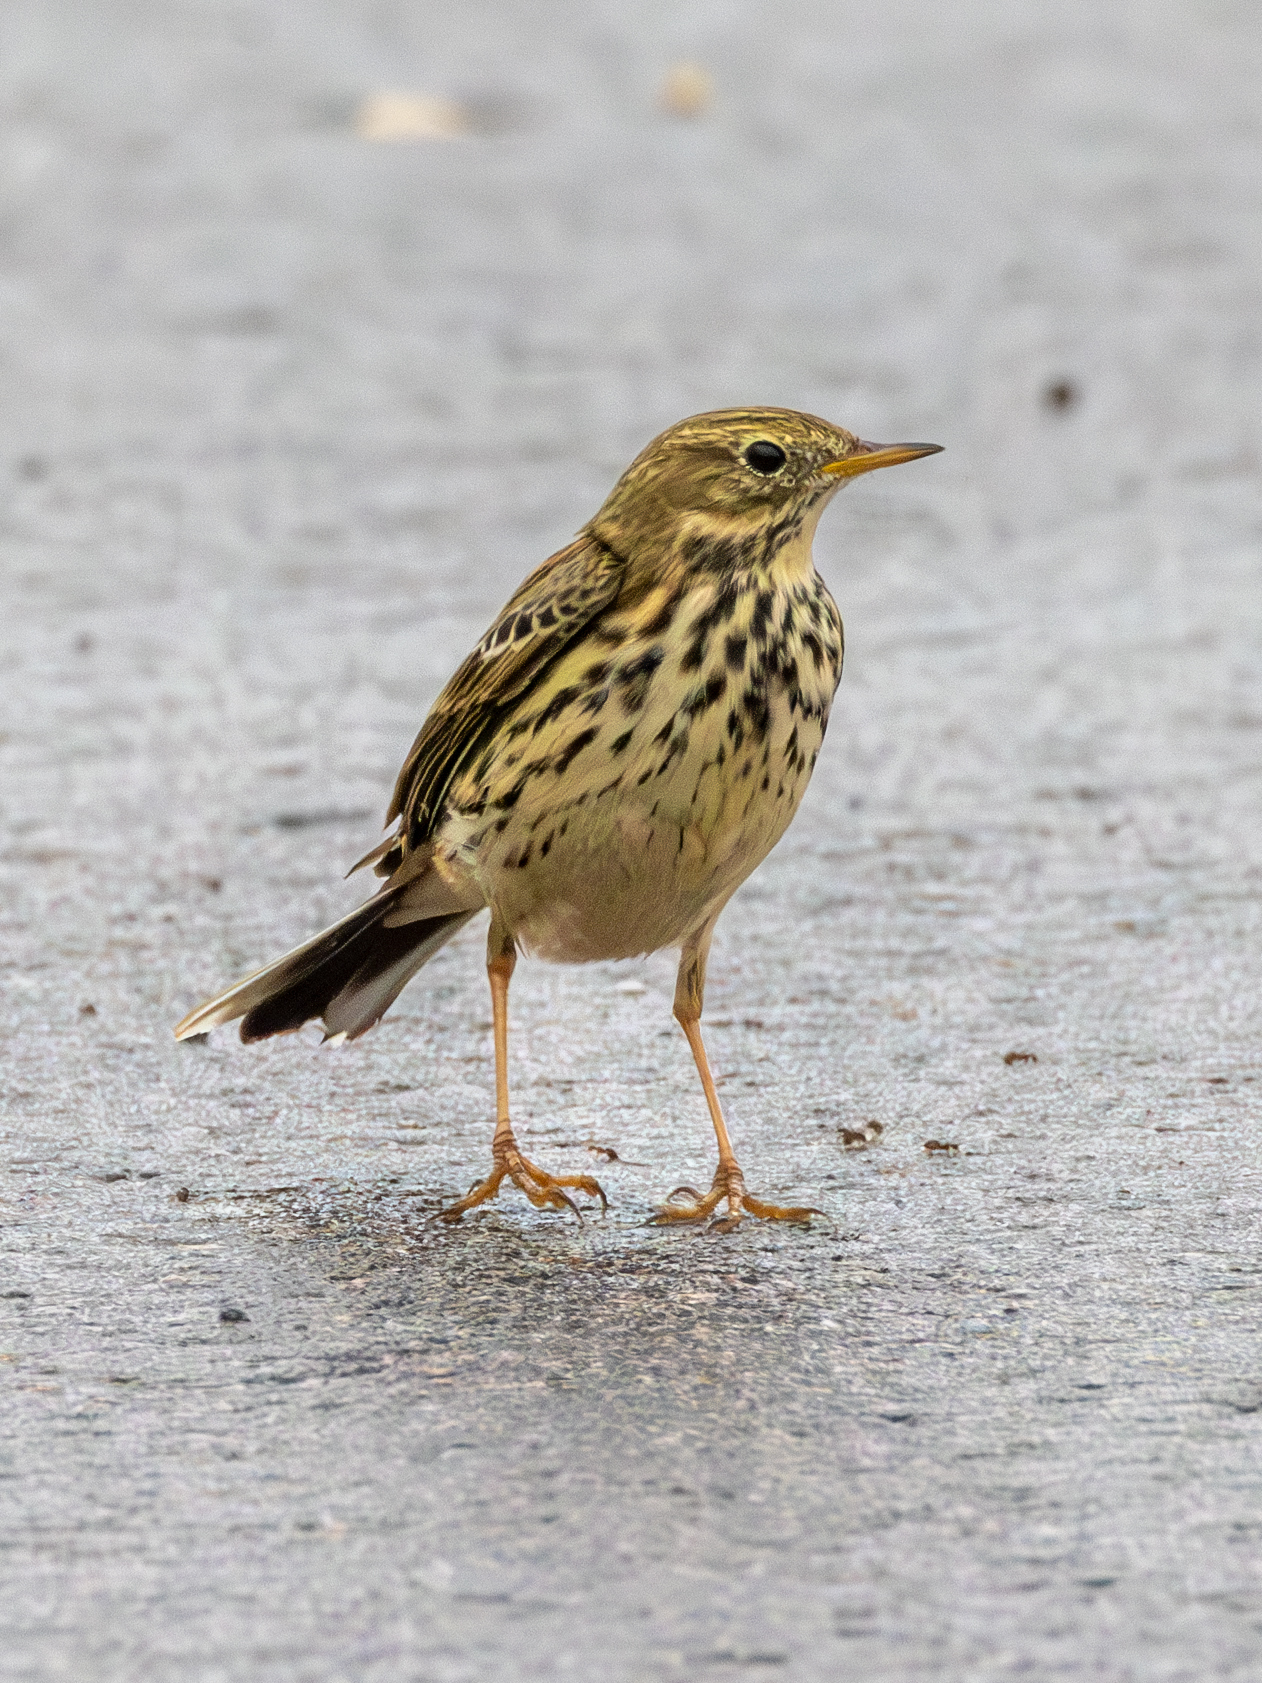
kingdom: Animalia
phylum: Chordata
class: Aves
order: Passeriformes
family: Motacillidae
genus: Anthus
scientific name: Anthus pratensis
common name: Meadow pipit
